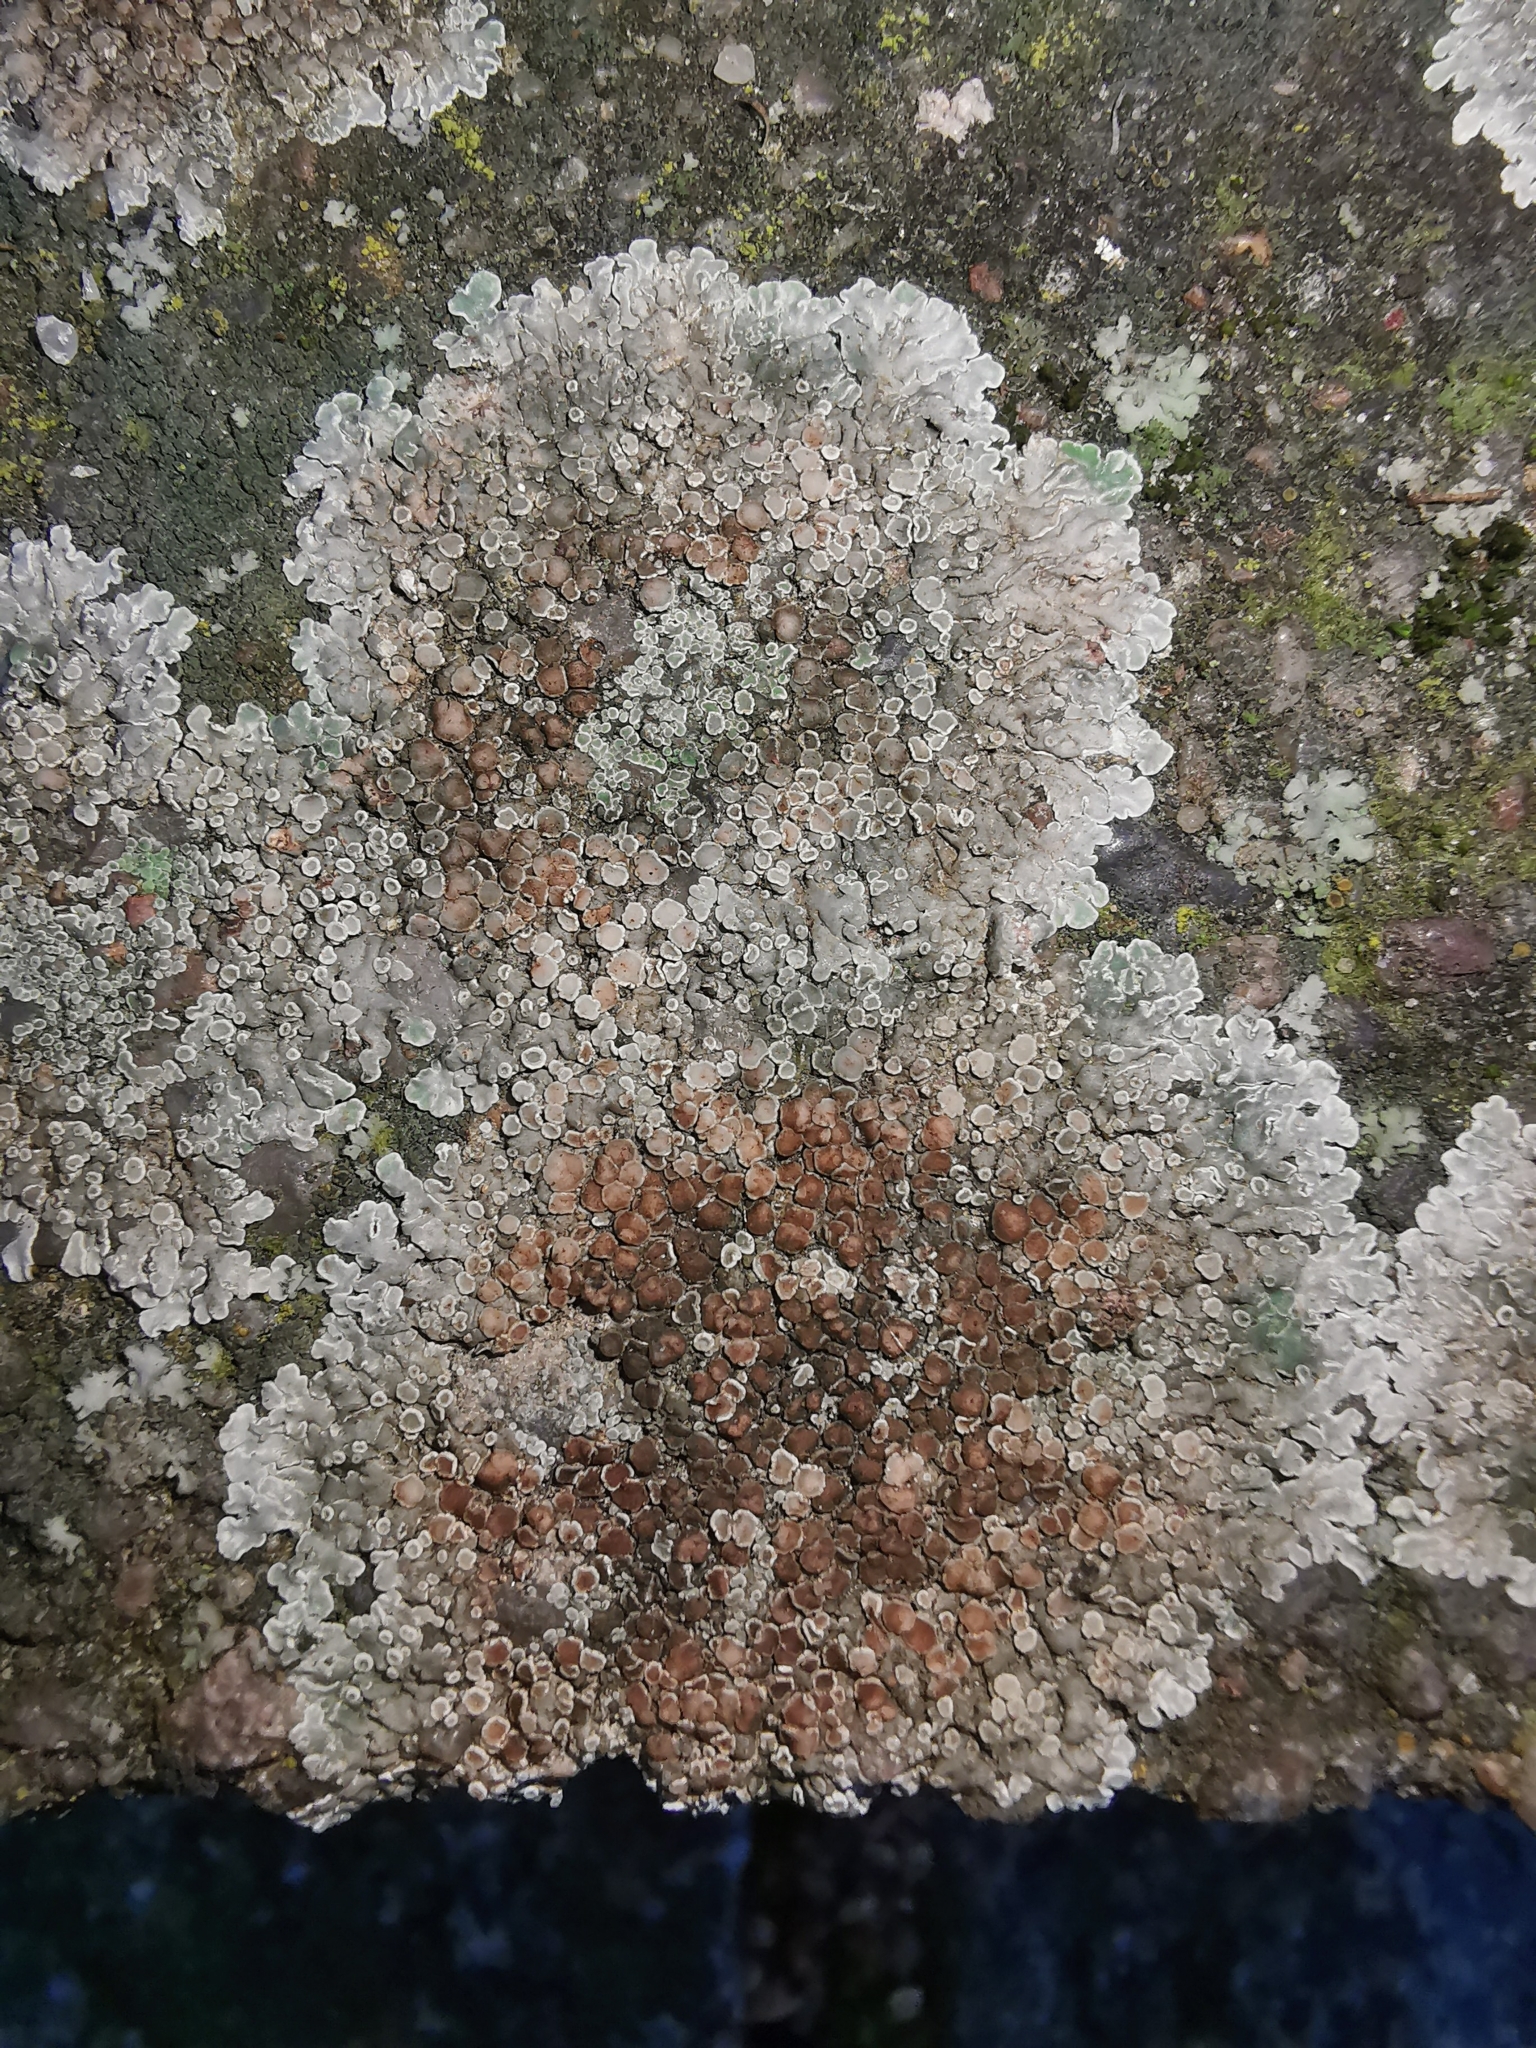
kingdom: Fungi
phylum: Ascomycota
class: Lecanoromycetes
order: Lecanorales
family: Lecanoraceae
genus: Protoparmeliopsis
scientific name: Protoparmeliopsis muralis
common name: Stonewall rim lichen
